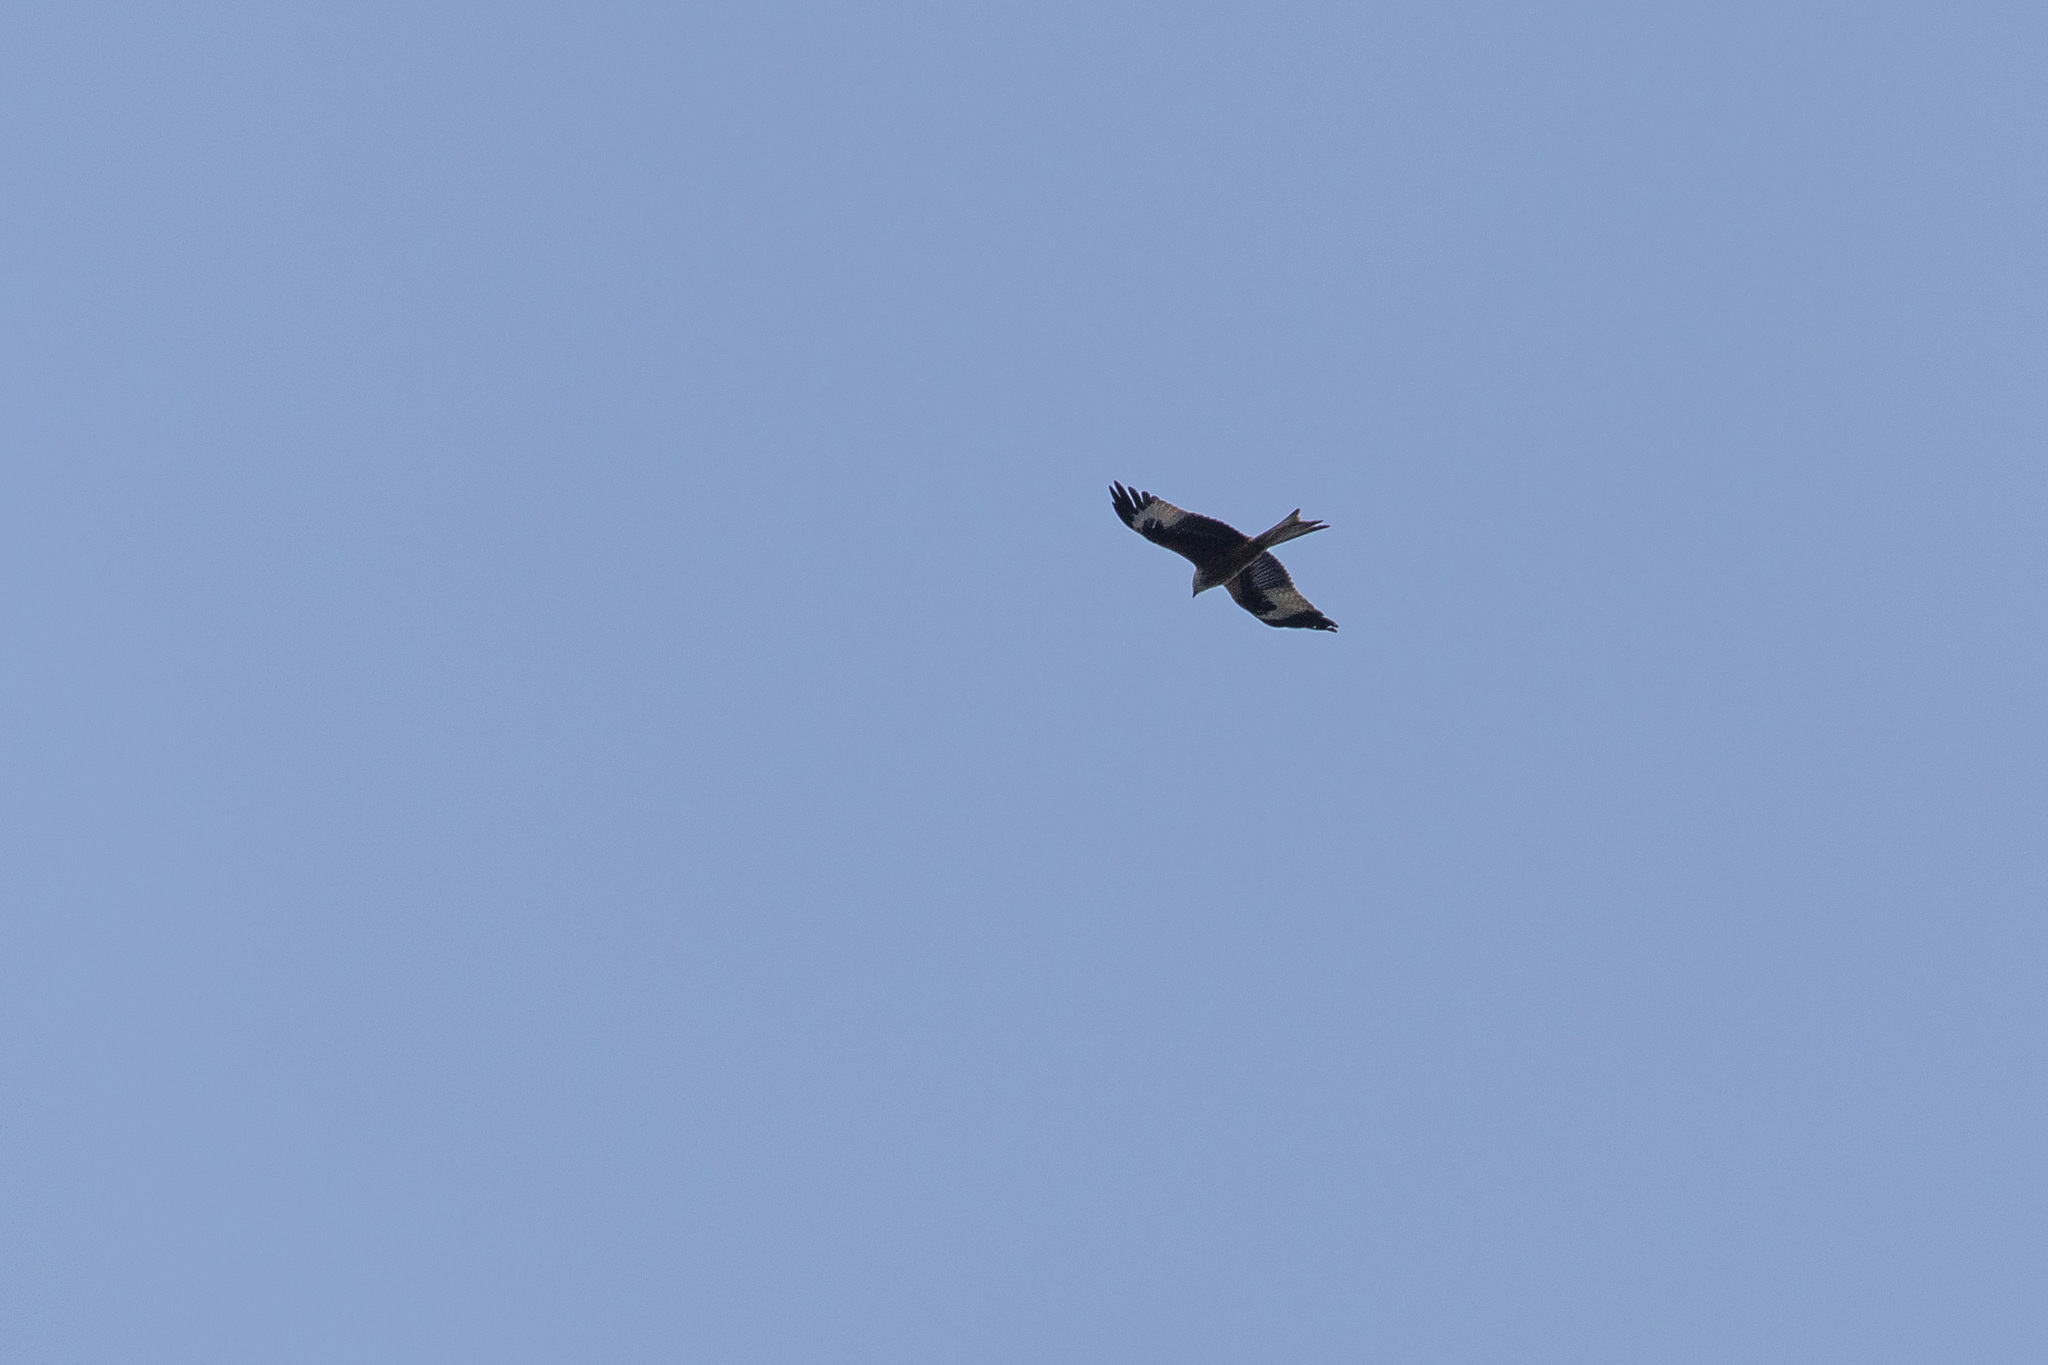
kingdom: Animalia
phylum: Chordata
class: Aves
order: Accipitriformes
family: Accipitridae
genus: Milvus
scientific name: Milvus milvus
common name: Red kite
